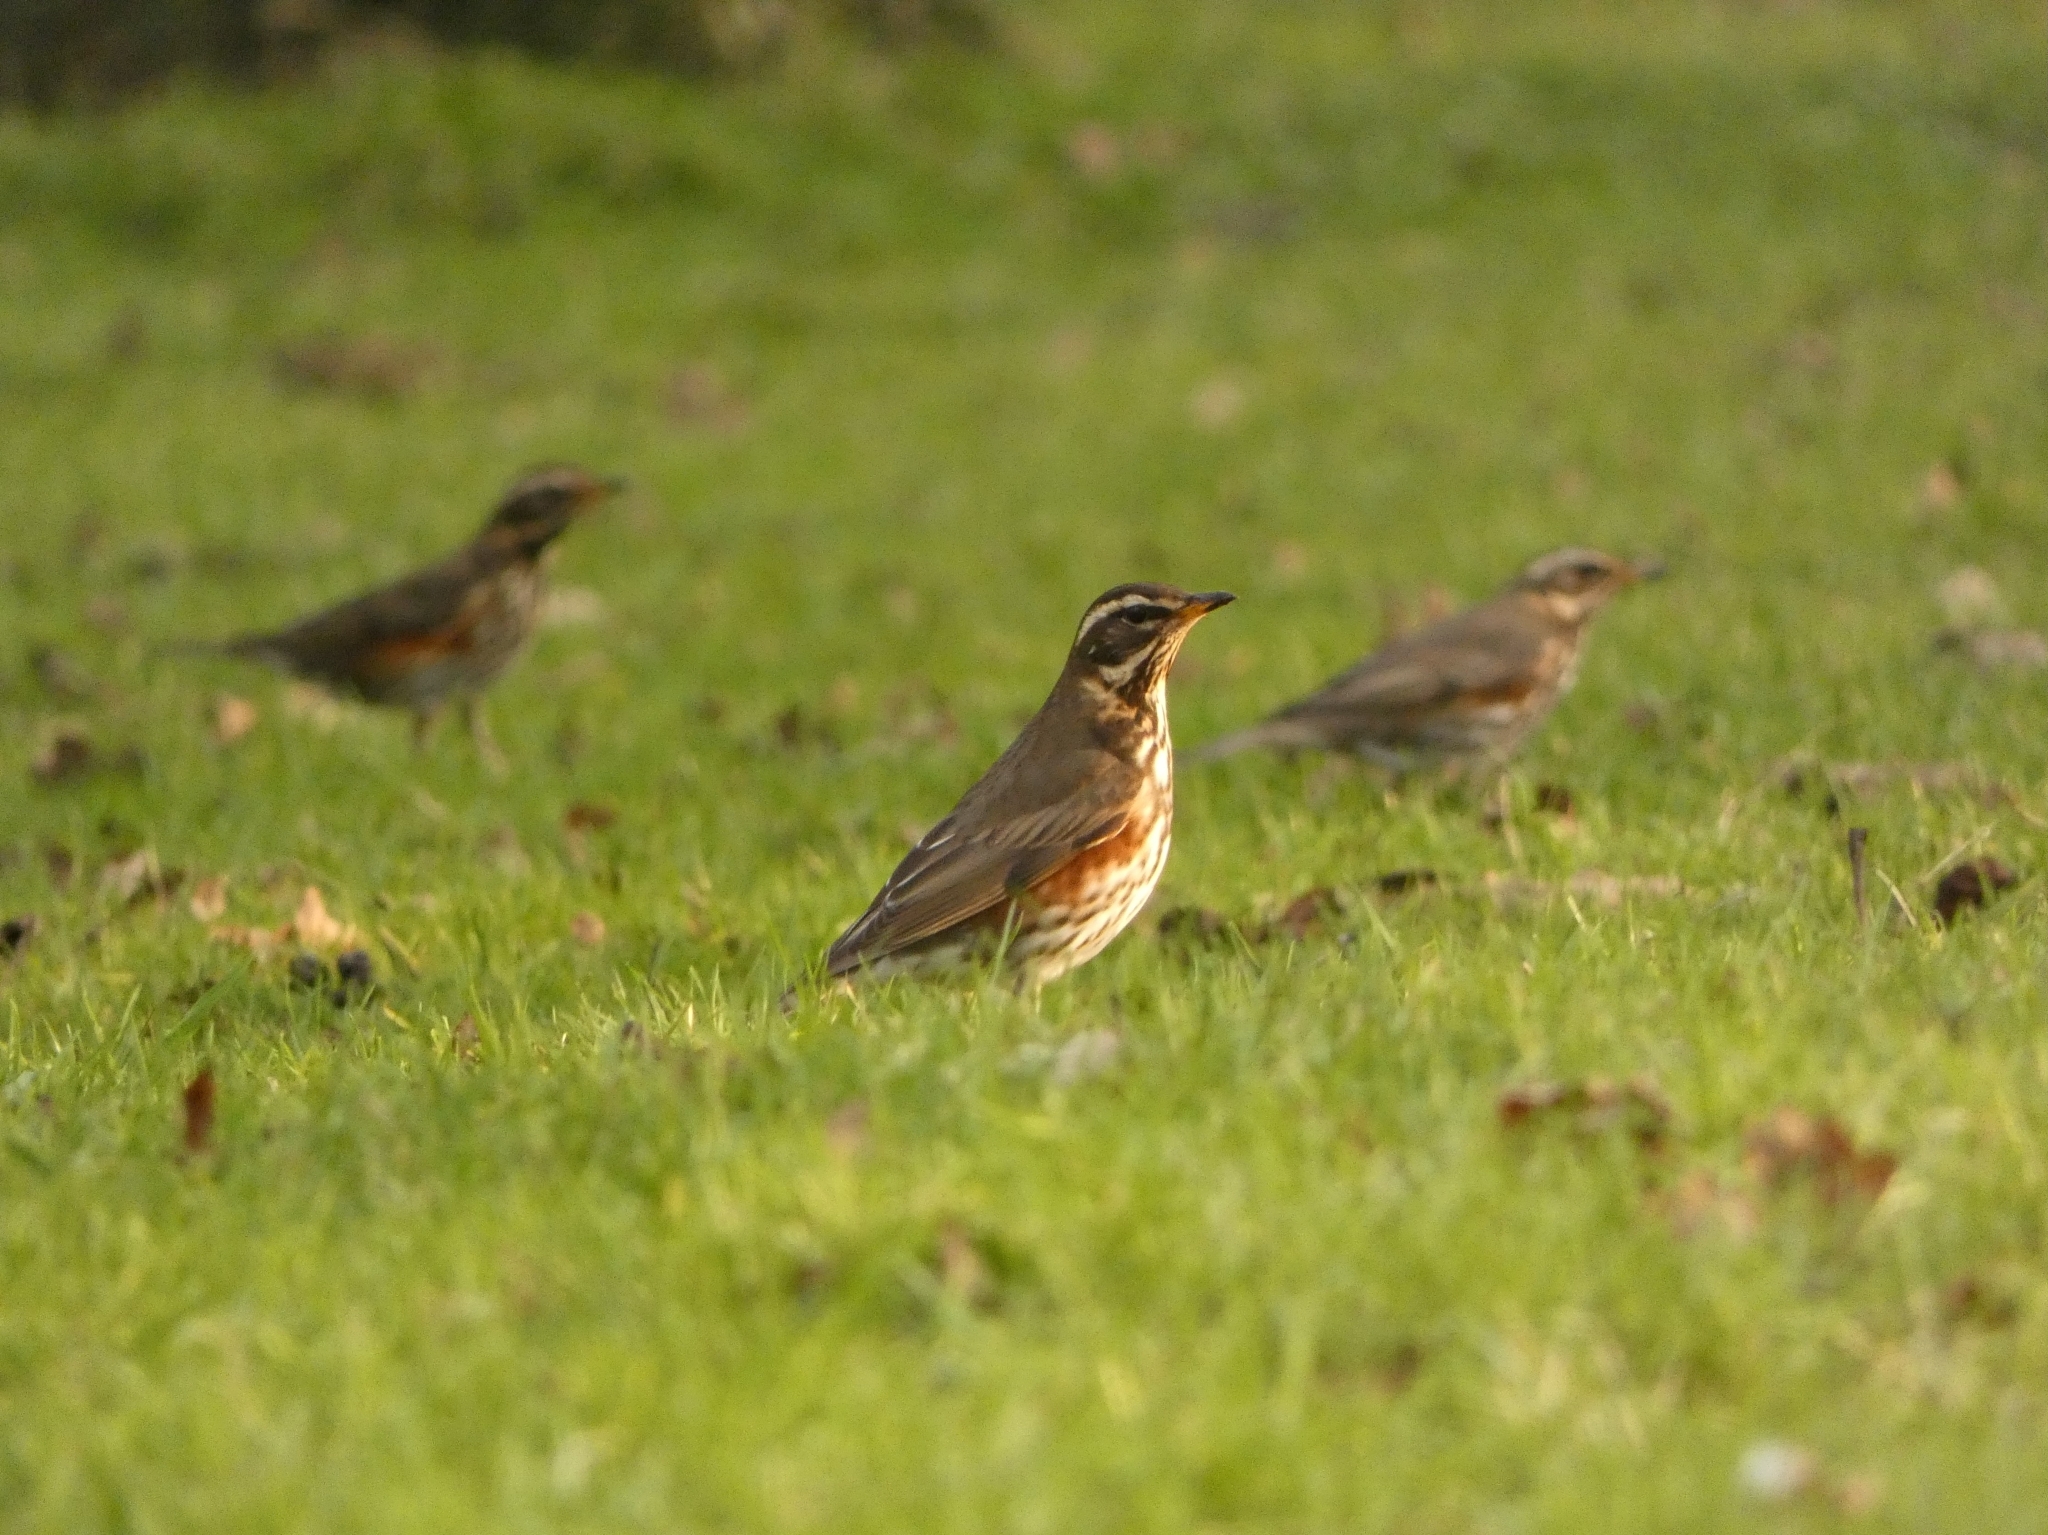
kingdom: Animalia
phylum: Chordata
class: Aves
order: Passeriformes
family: Turdidae
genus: Turdus
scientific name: Turdus iliacus
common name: Redwing
